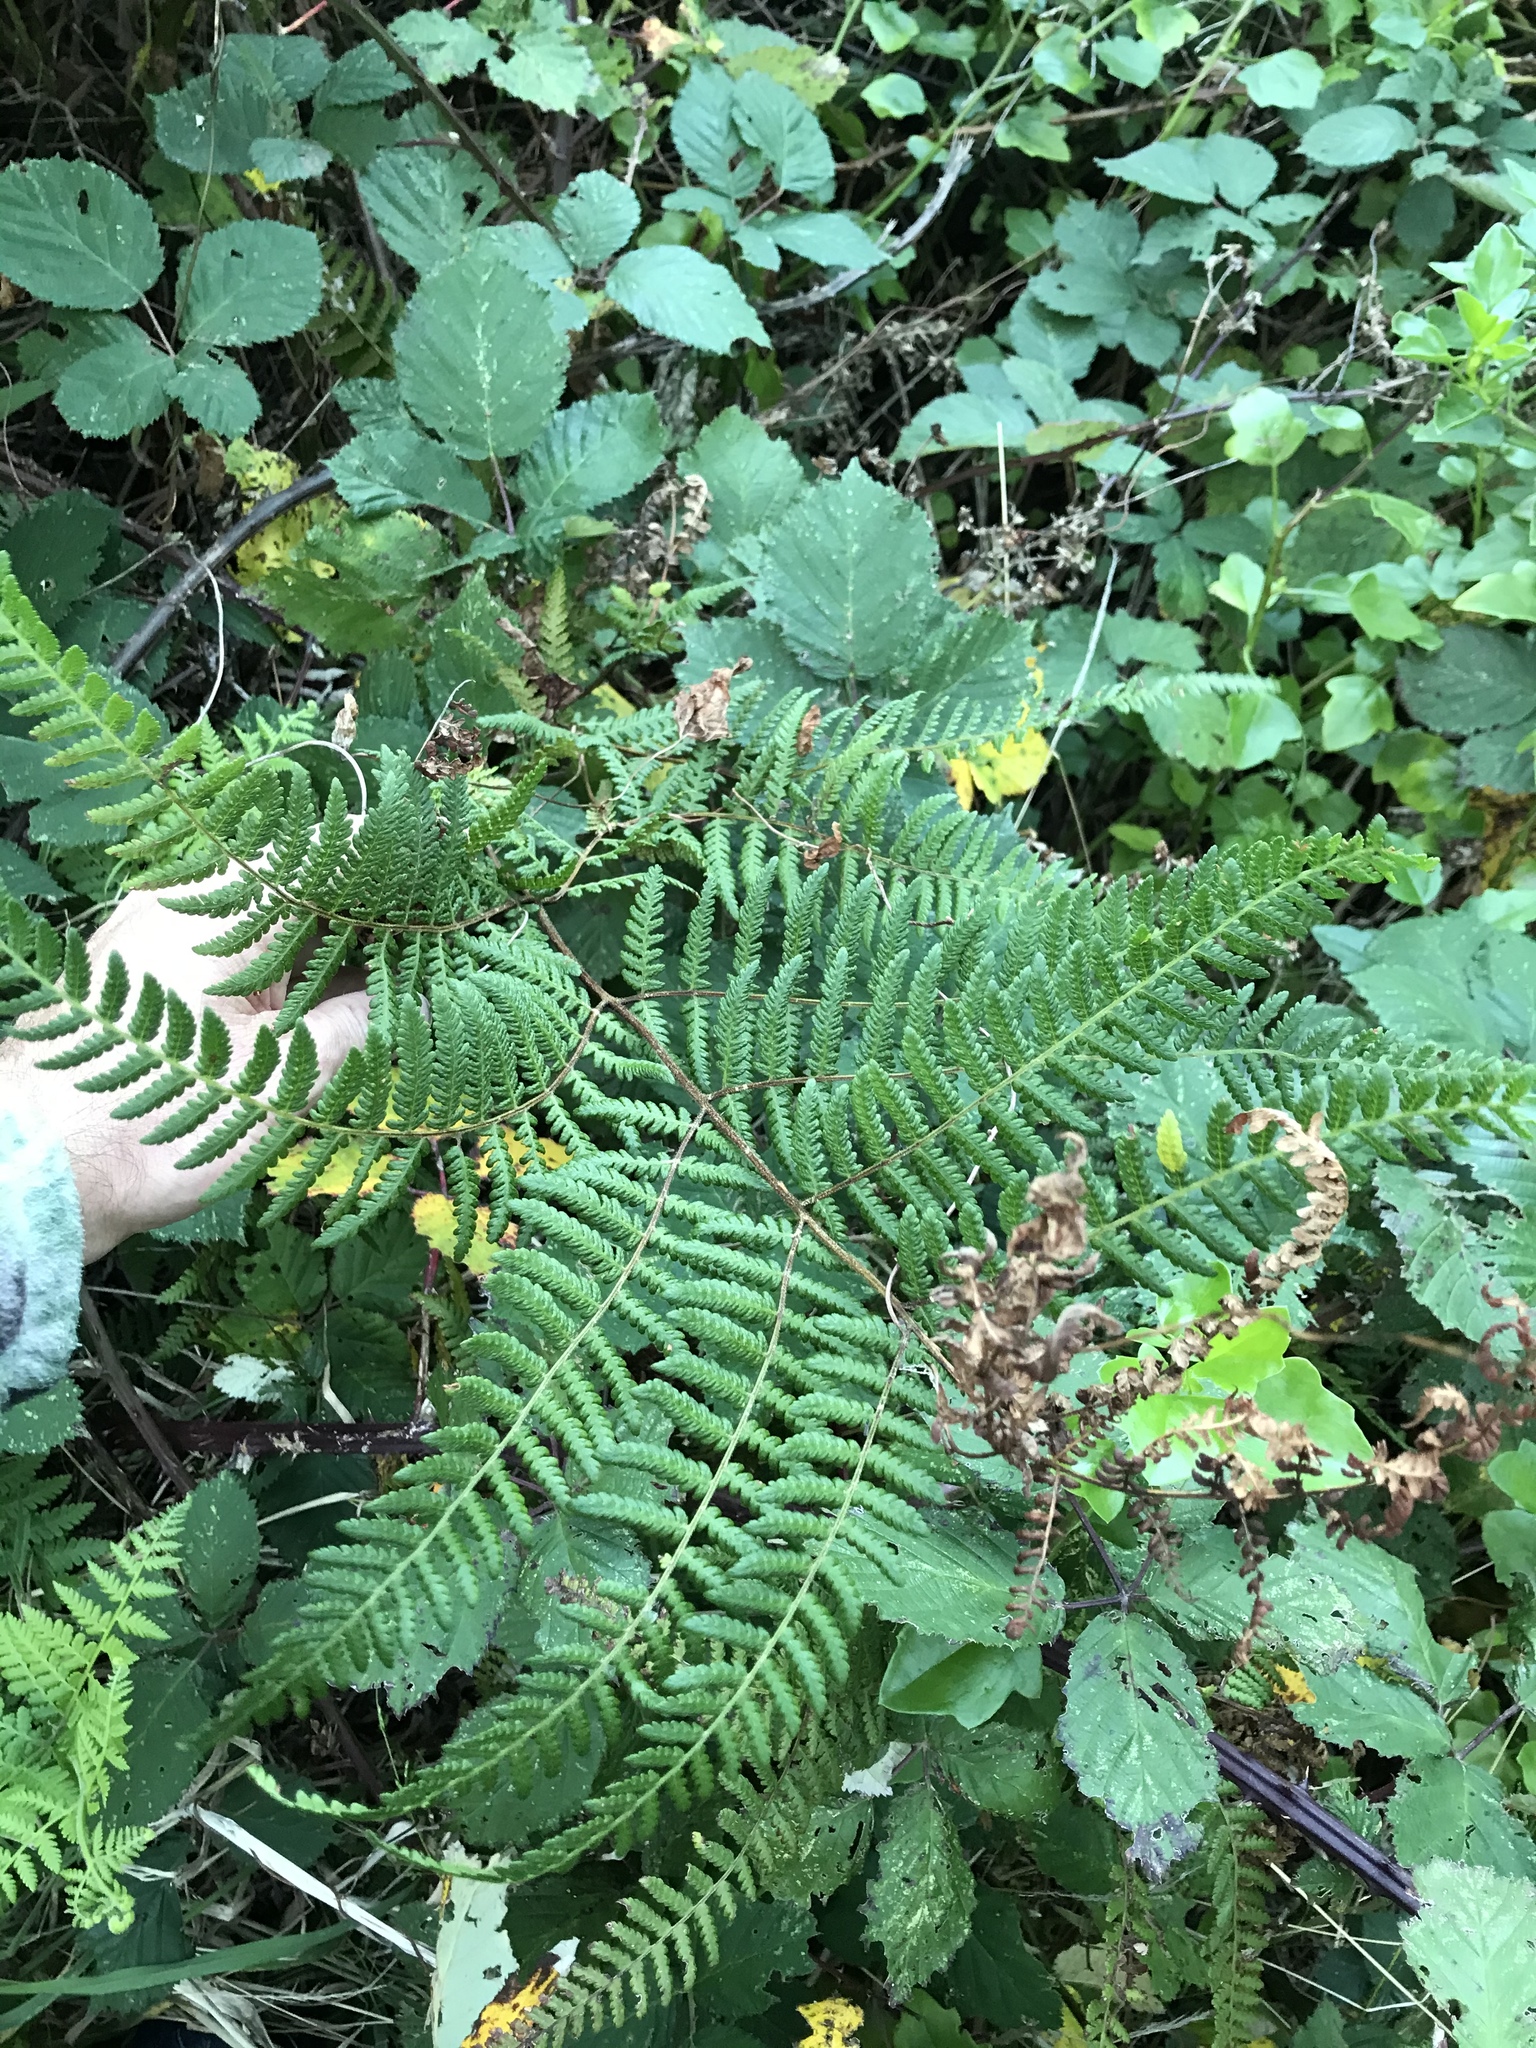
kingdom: Plantae
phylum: Tracheophyta
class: Polypodiopsida
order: Polypodiales
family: Dennstaedtiaceae
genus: Hypolepis
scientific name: Hypolepis ambigua
